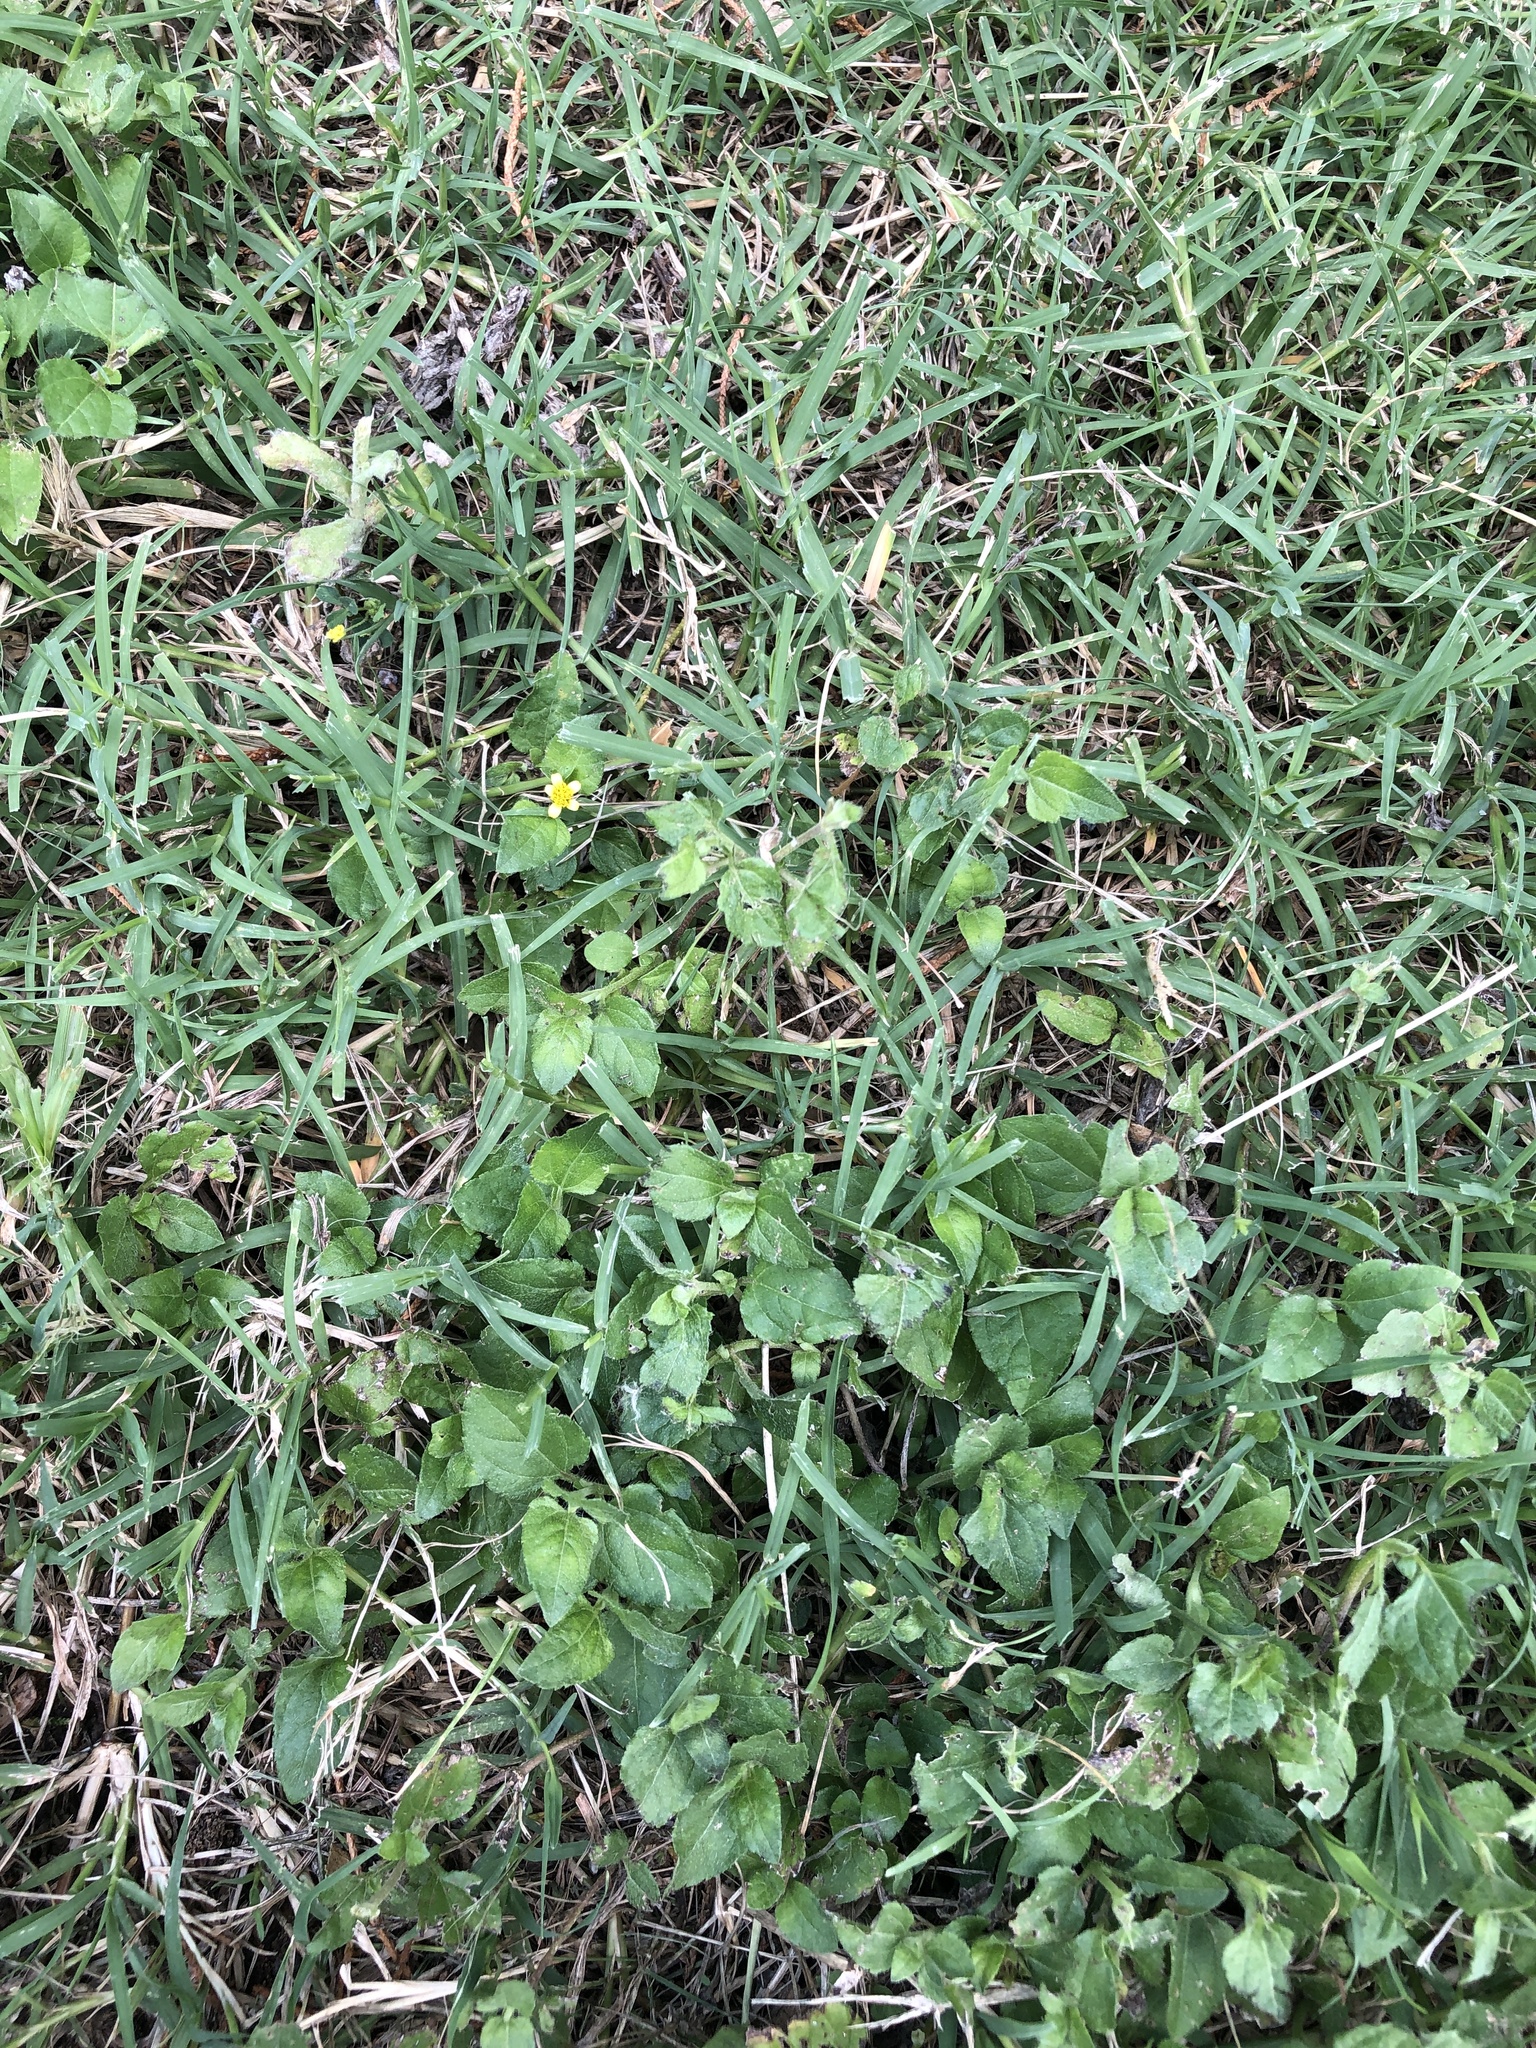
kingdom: Plantae
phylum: Tracheophyta
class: Magnoliopsida
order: Asterales
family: Asteraceae
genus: Calyptocarpus
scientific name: Calyptocarpus vialis
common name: Straggler daisy
